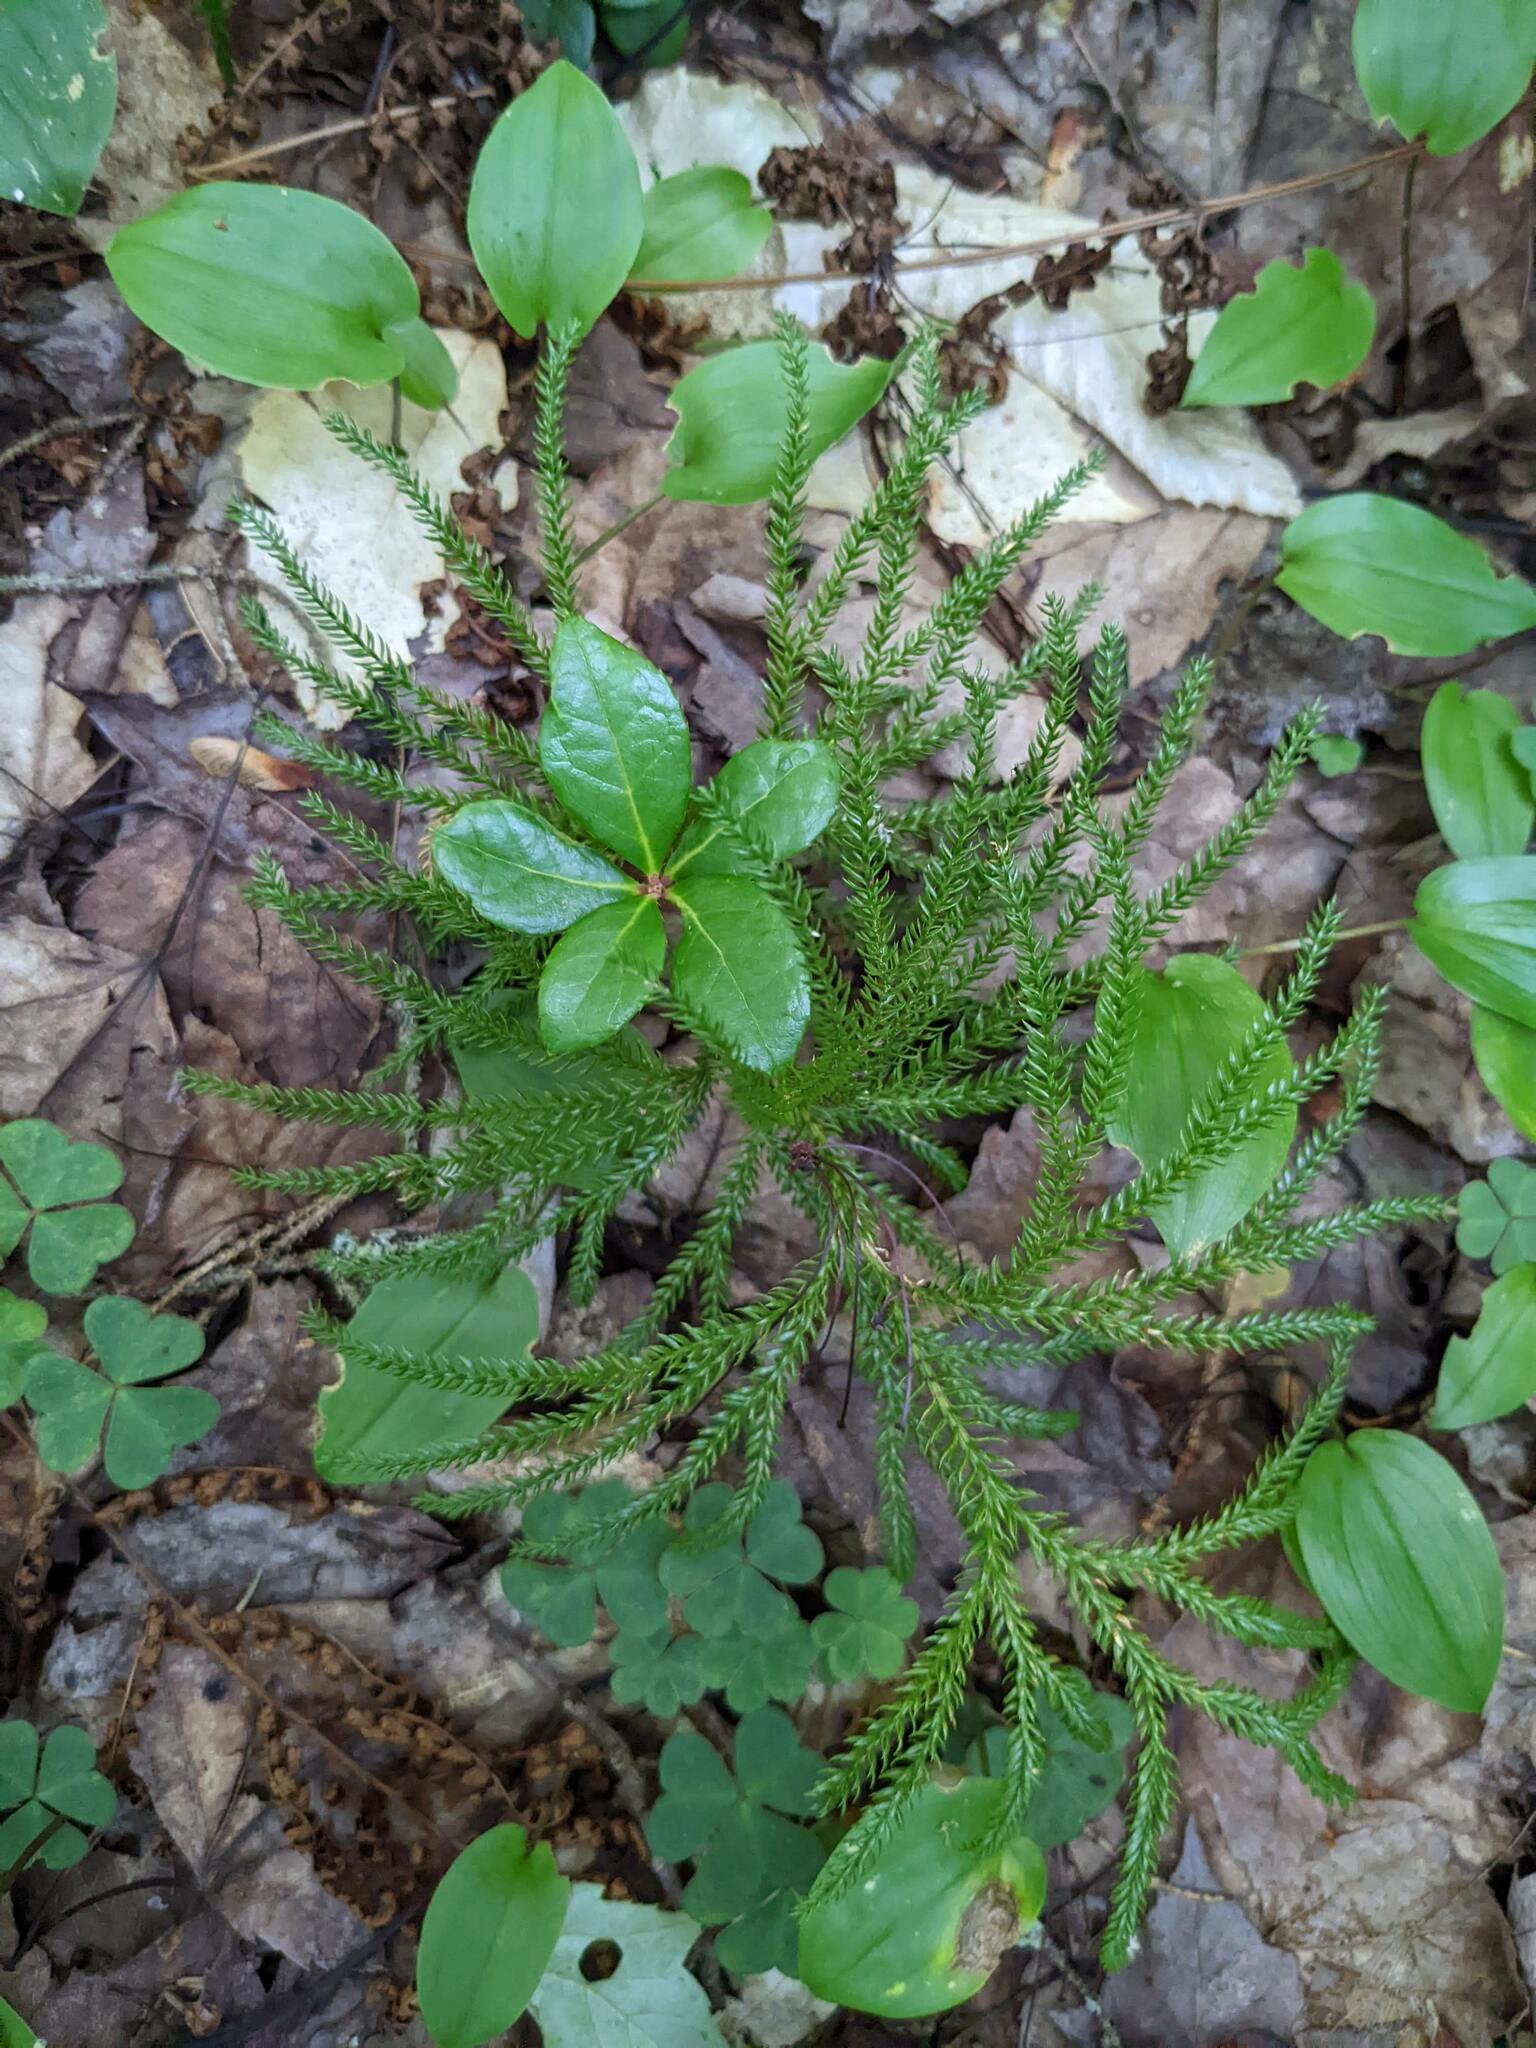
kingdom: Plantae
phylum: Tracheophyta
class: Liliopsida
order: Asparagales
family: Asparagaceae
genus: Maianthemum
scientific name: Maianthemum canadense
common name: False lily-of-the-valley
